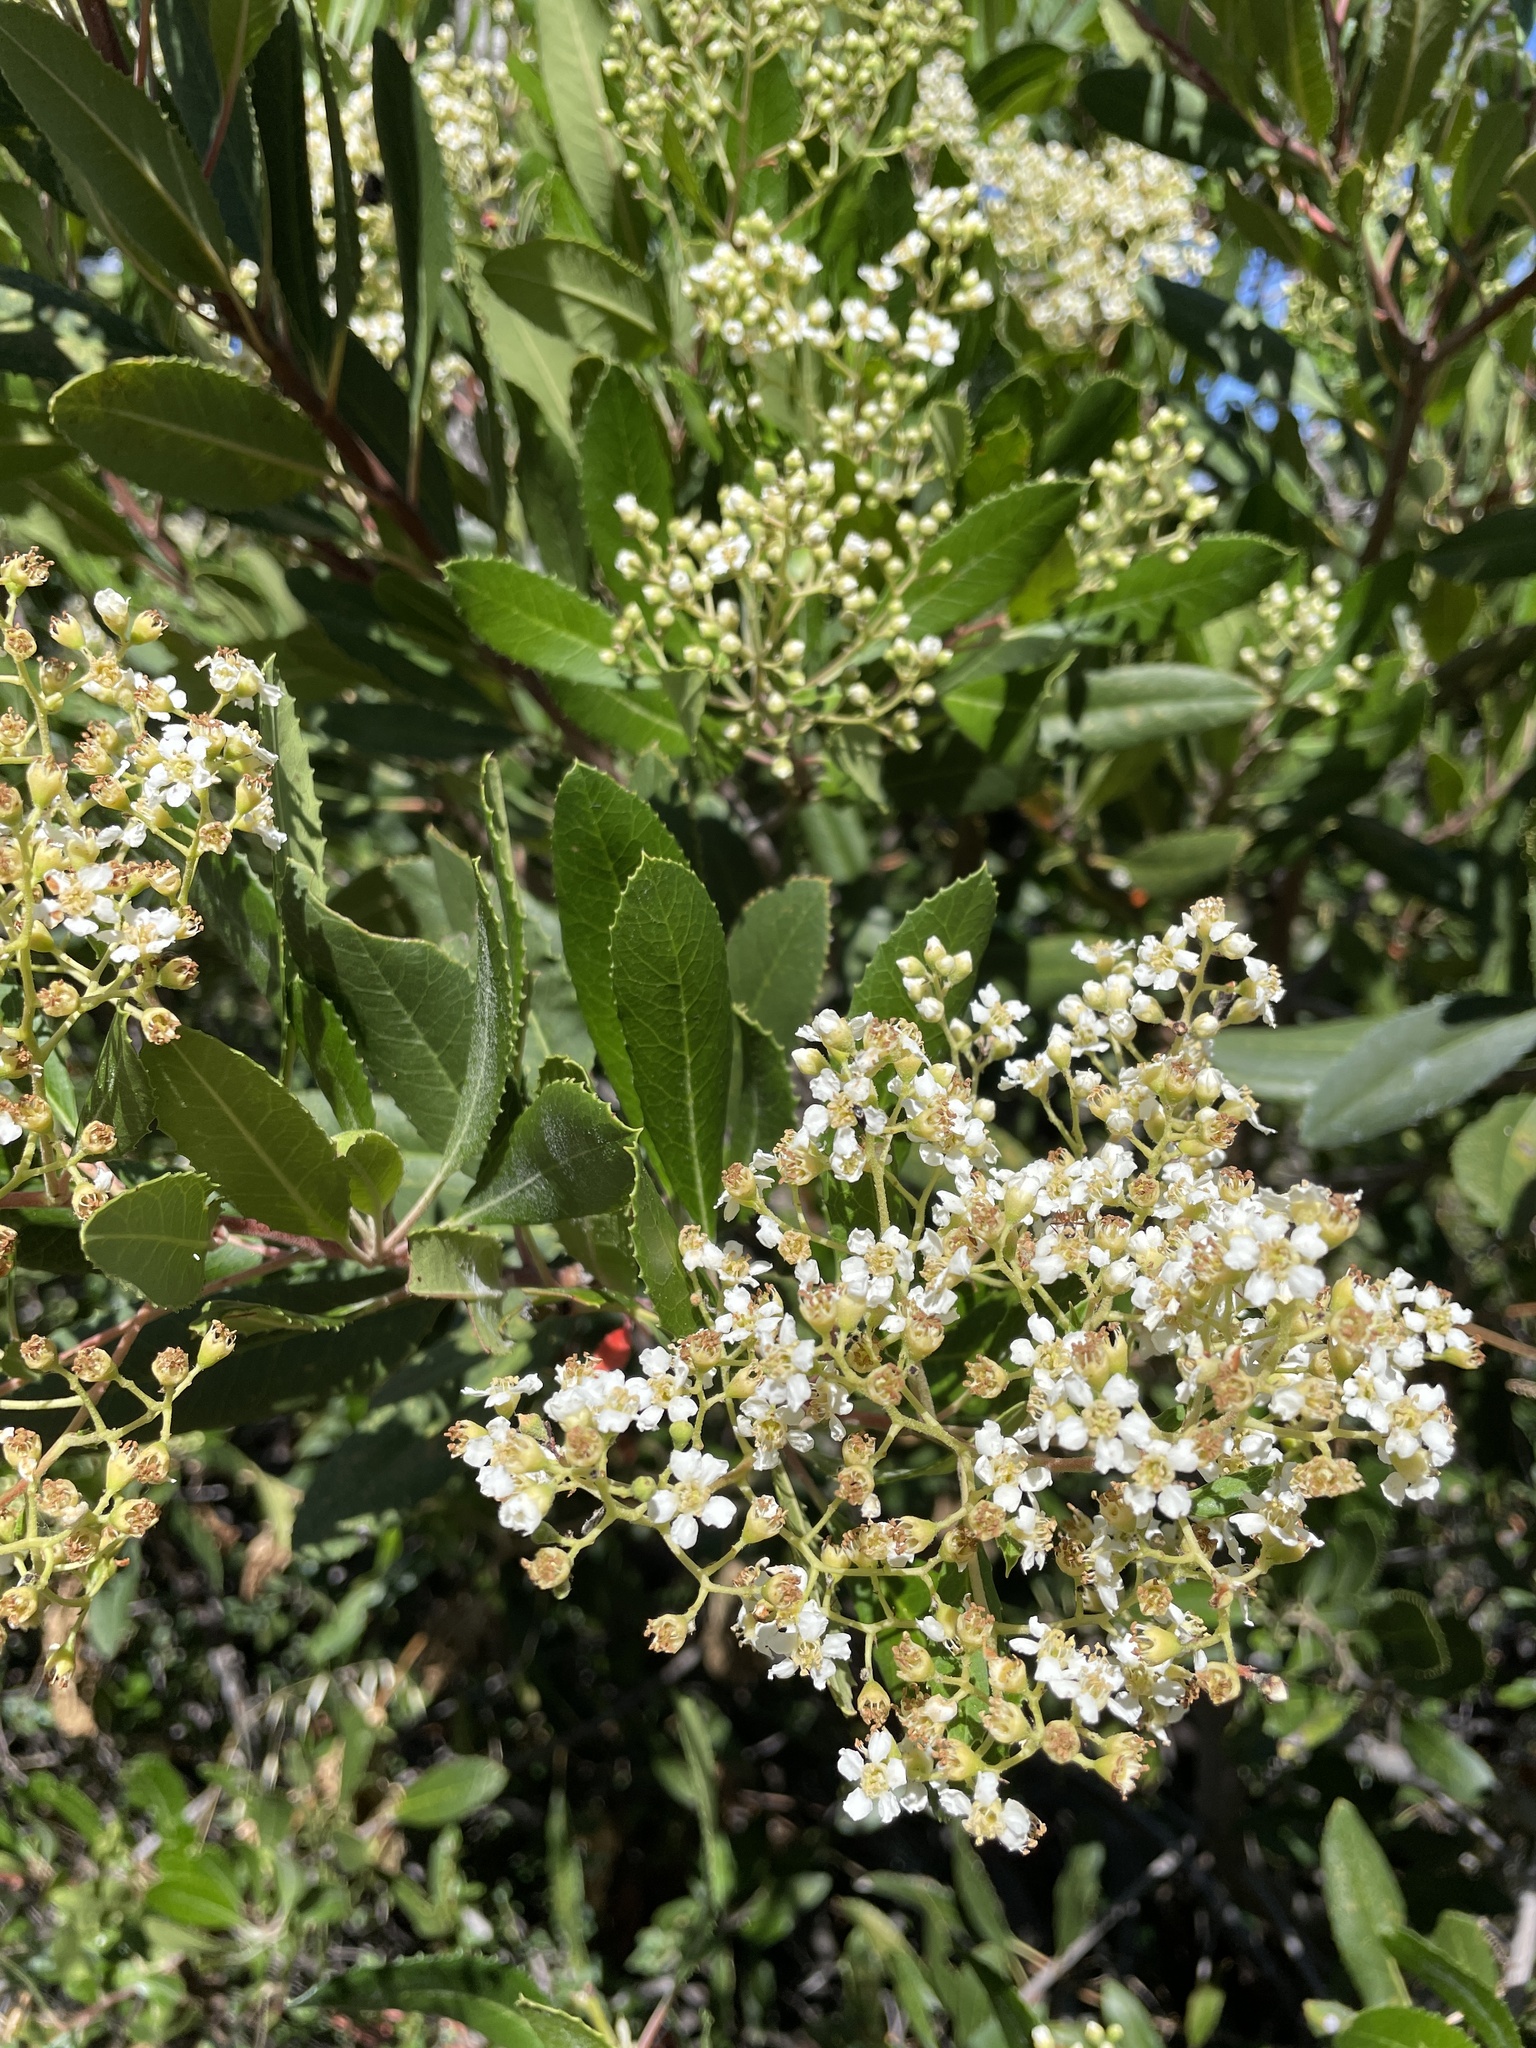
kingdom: Plantae
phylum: Tracheophyta
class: Magnoliopsida
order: Rosales
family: Rosaceae
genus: Heteromeles
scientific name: Heteromeles arbutifolia
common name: California-holly
